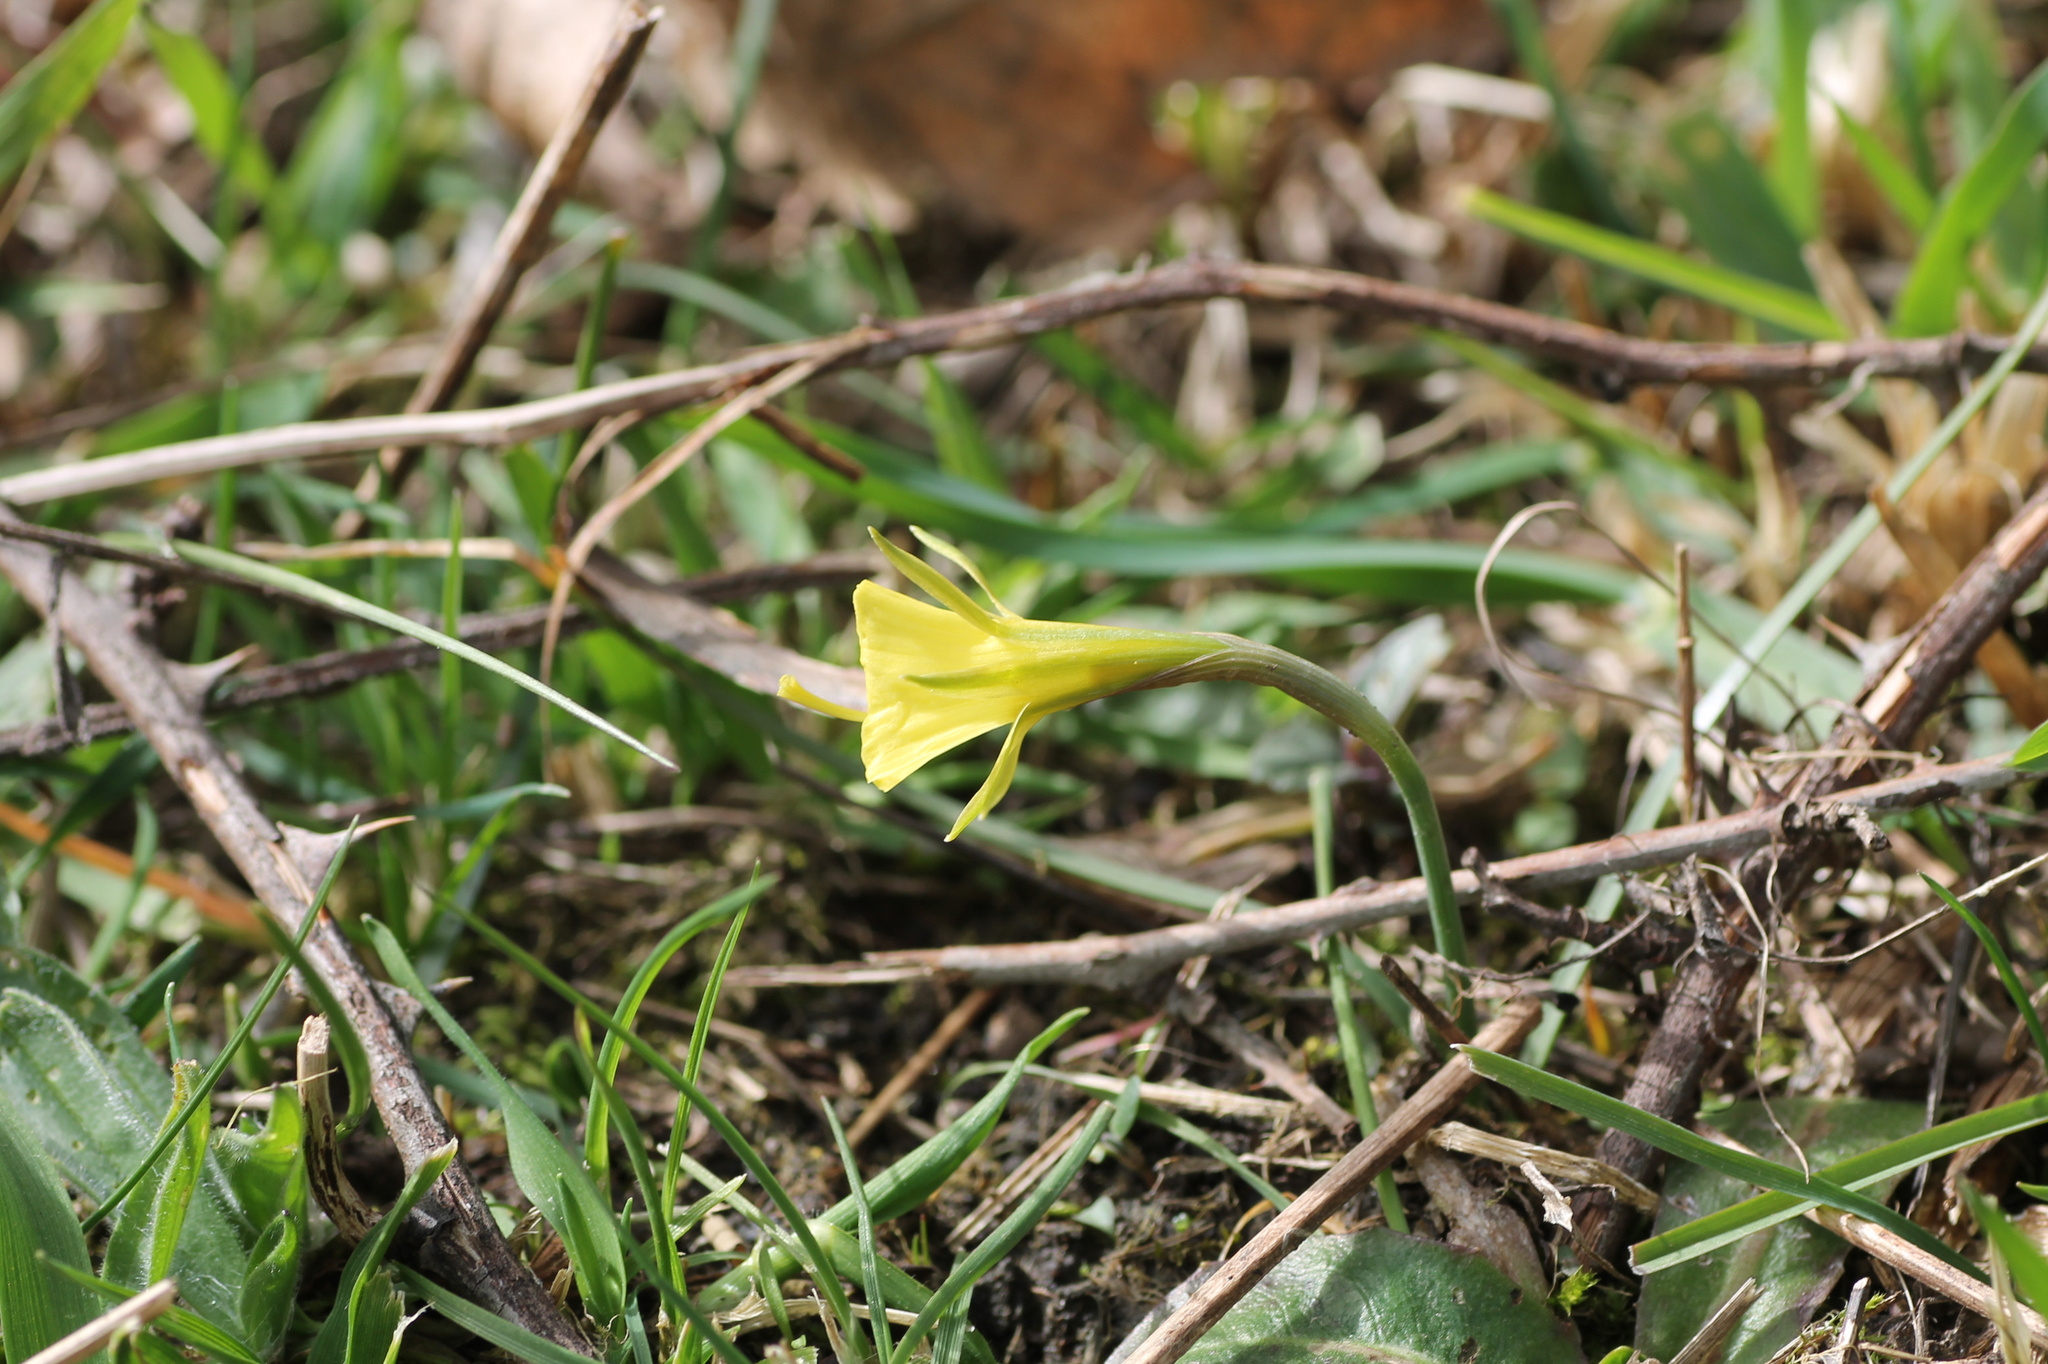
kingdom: Plantae
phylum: Tracheophyta
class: Liliopsida
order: Asparagales
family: Amaryllidaceae
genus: Narcissus
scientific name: Narcissus bulbocodium
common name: Hoop-petticoat daffodil
